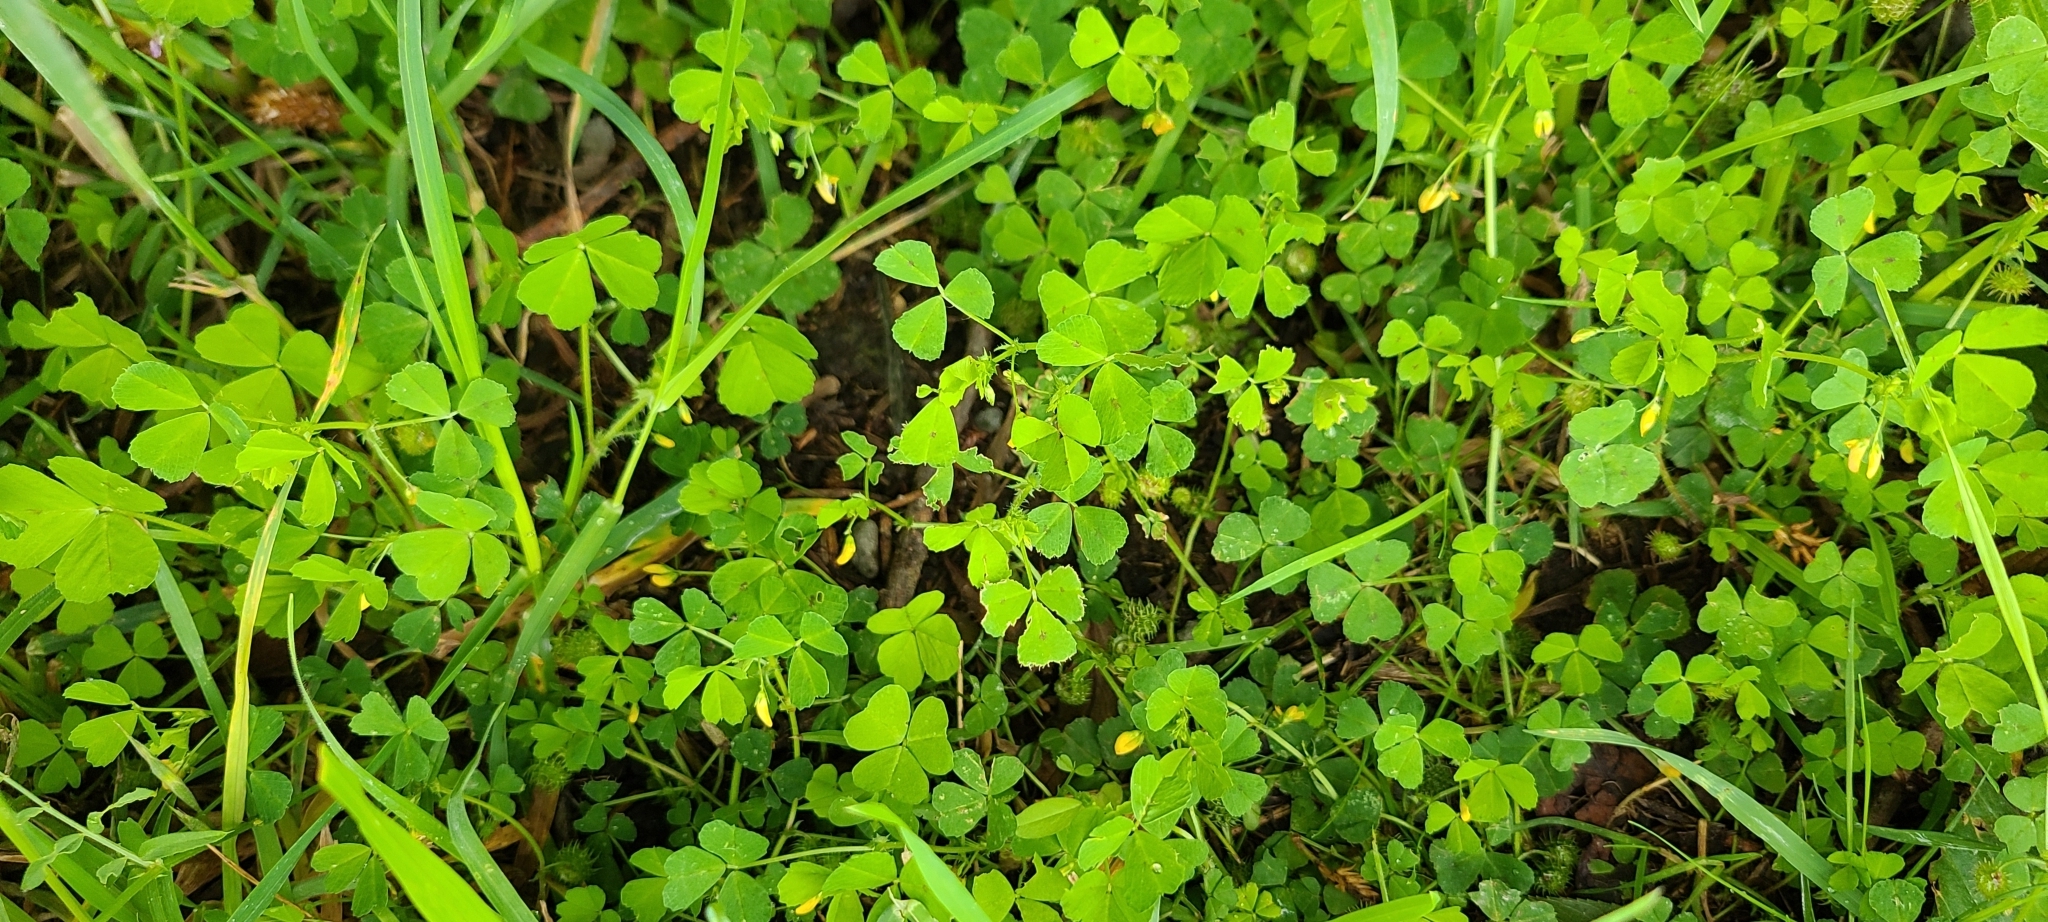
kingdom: Plantae
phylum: Tracheophyta
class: Magnoliopsida
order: Fabales
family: Fabaceae
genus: Medicago
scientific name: Medicago arabica
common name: Spotted medick
